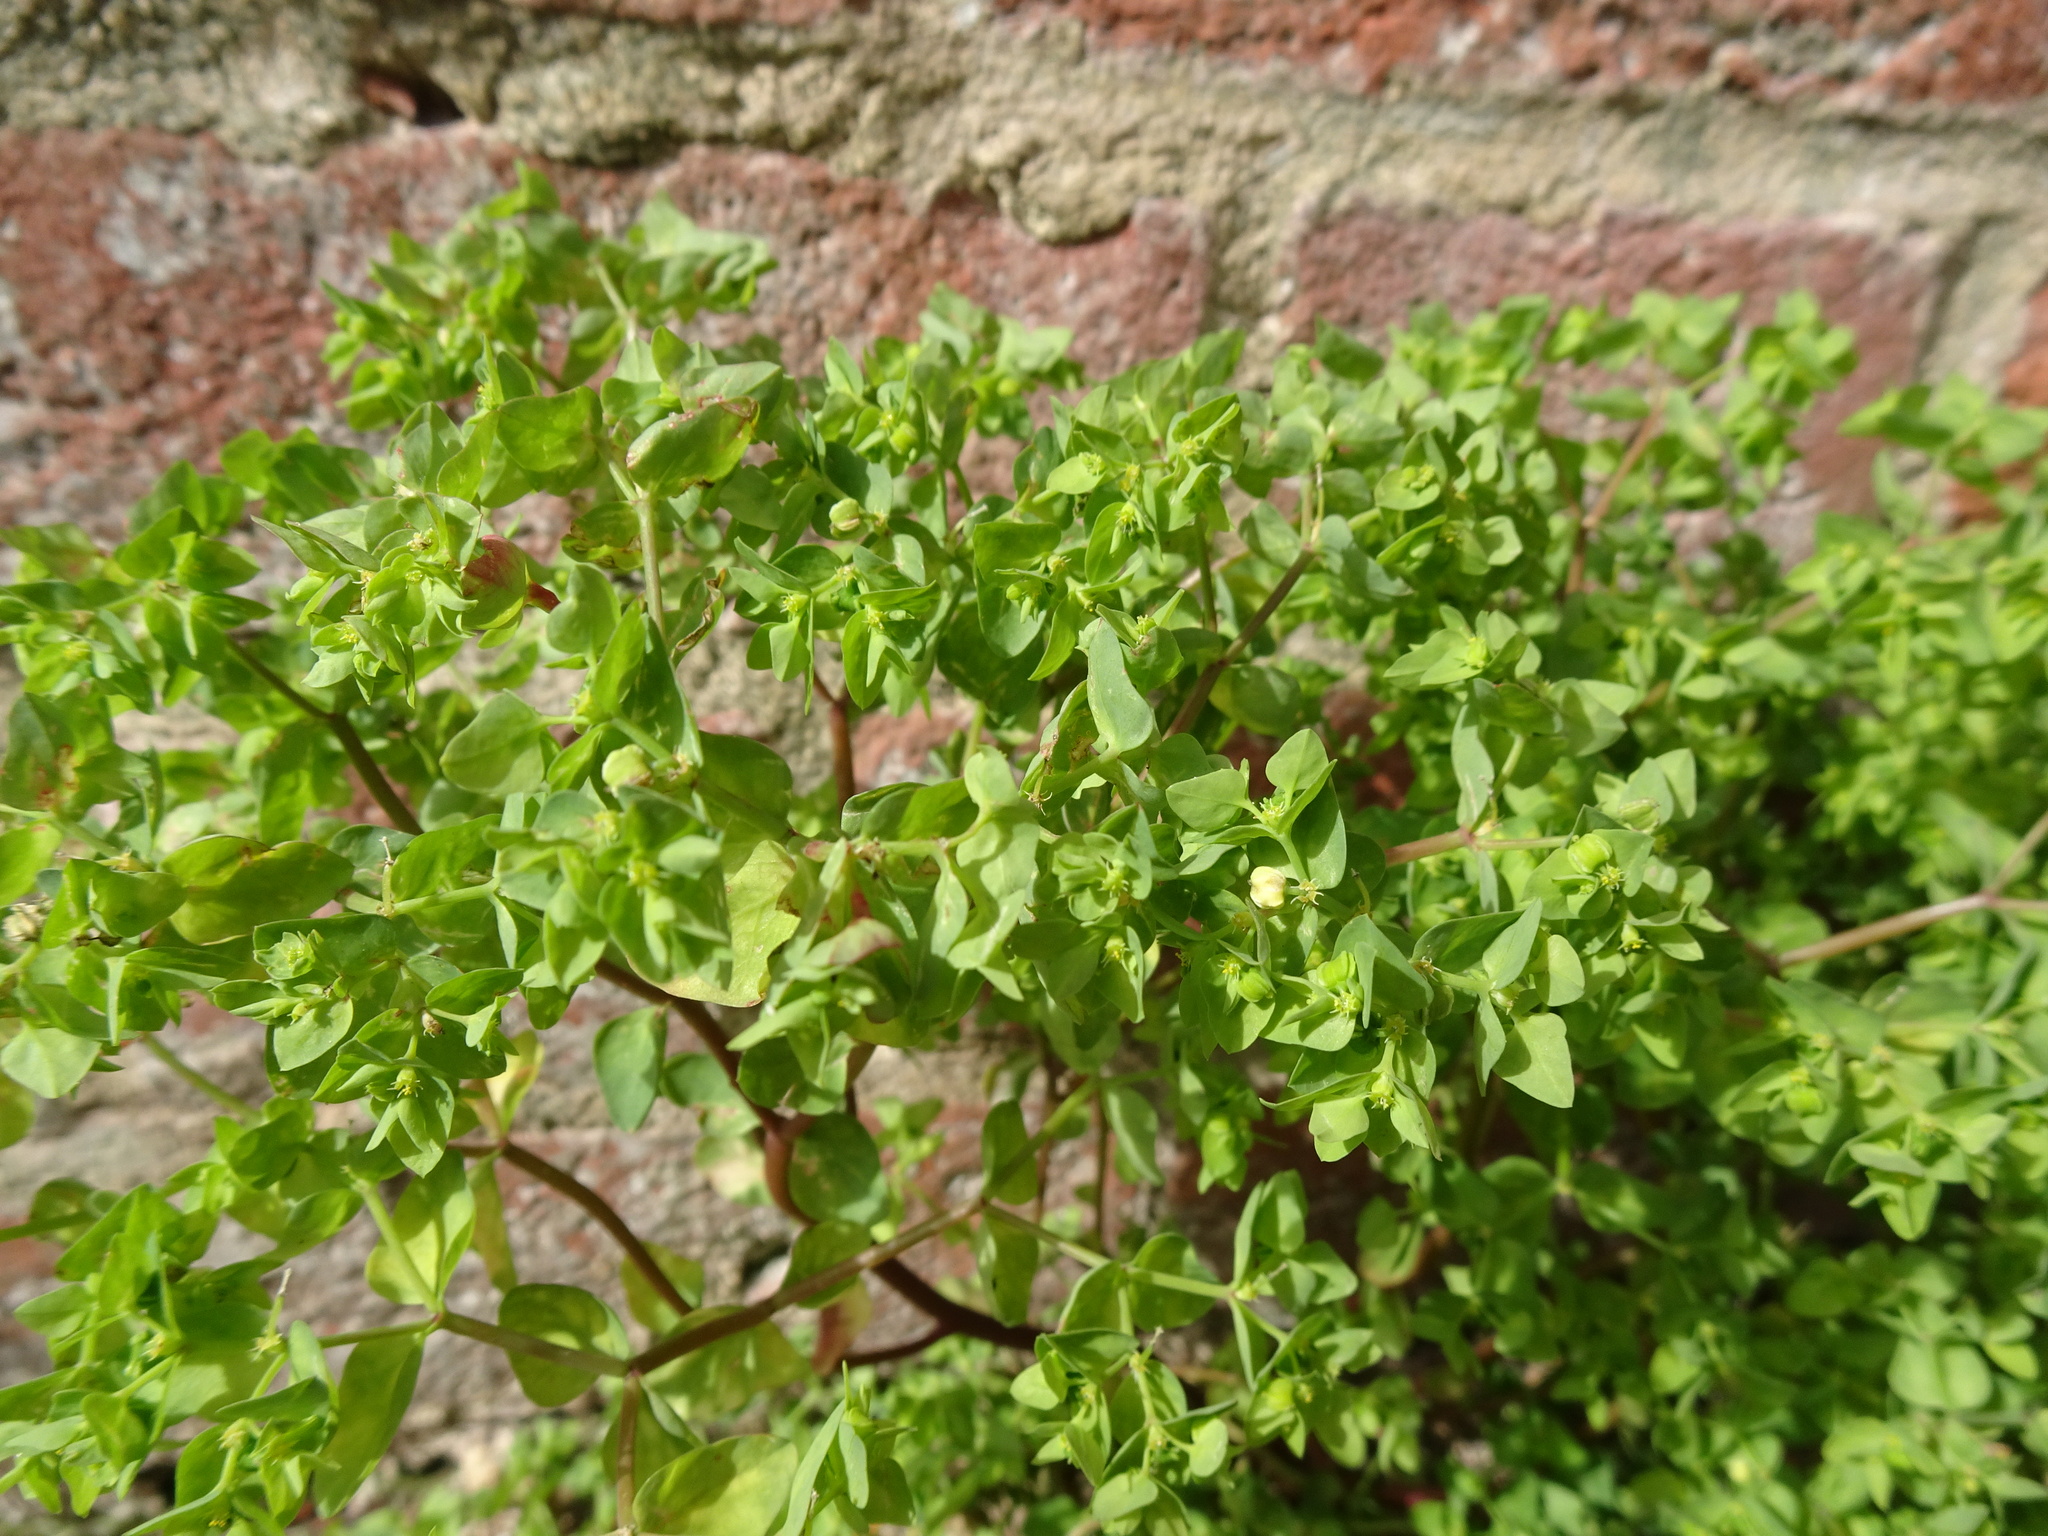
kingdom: Plantae
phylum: Tracheophyta
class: Magnoliopsida
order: Malpighiales
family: Euphorbiaceae
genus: Euphorbia
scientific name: Euphorbia peplus
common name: Petty spurge
